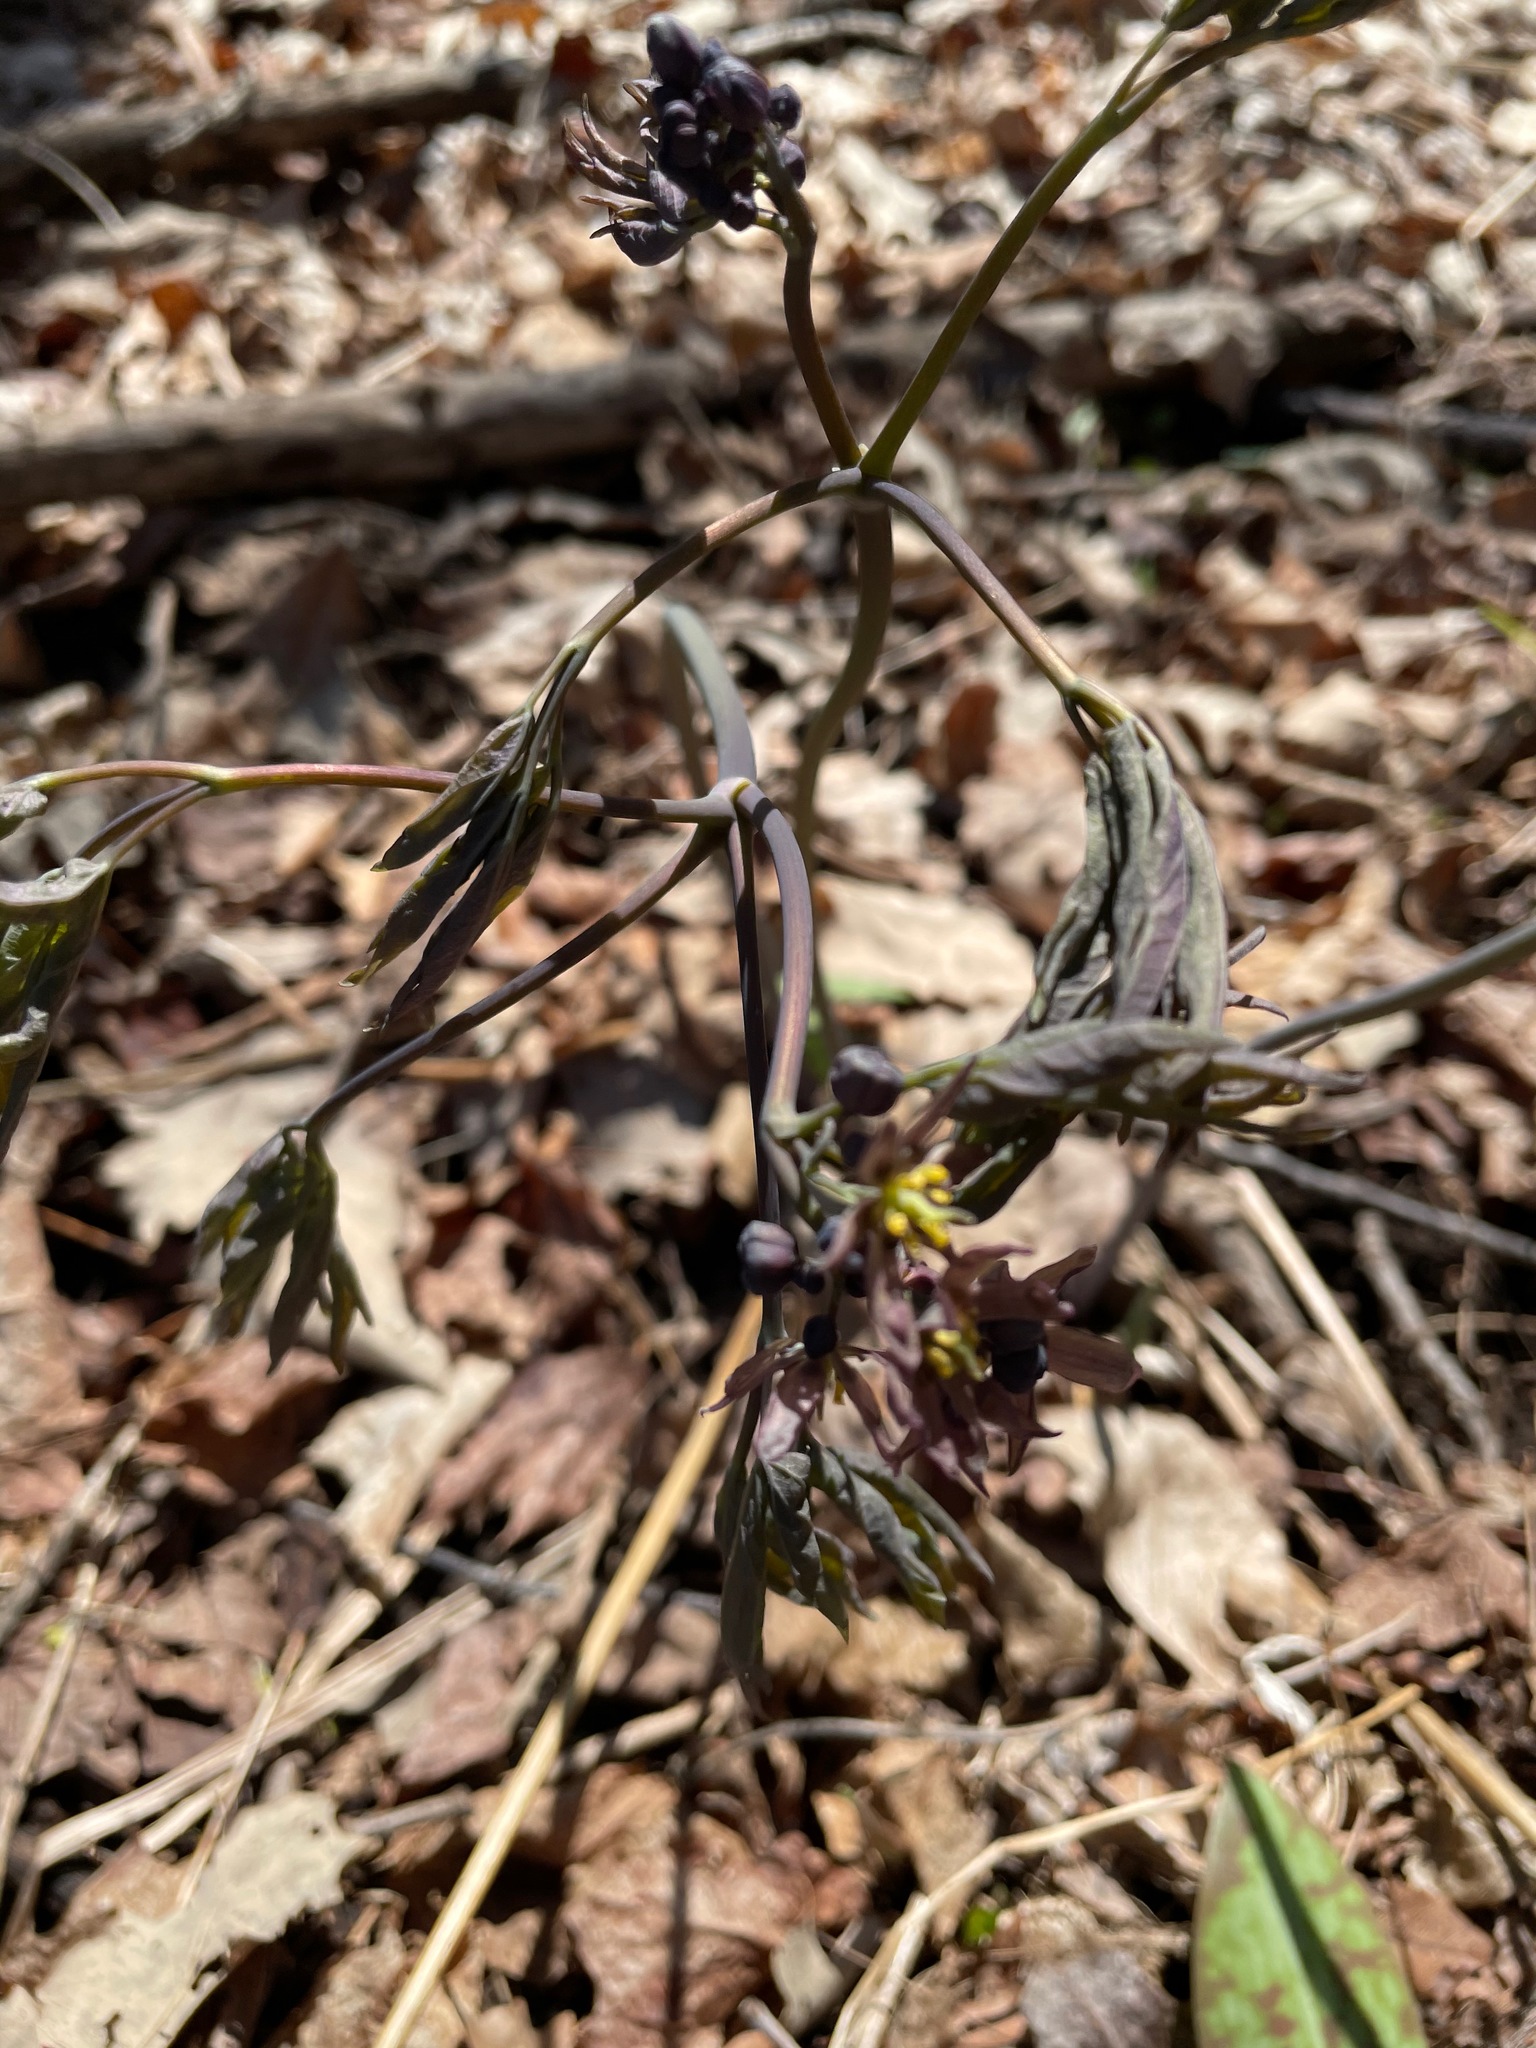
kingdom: Plantae
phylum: Tracheophyta
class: Magnoliopsida
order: Ranunculales
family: Berberidaceae
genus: Caulophyllum
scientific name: Caulophyllum giganteum
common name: Blue cohosh
